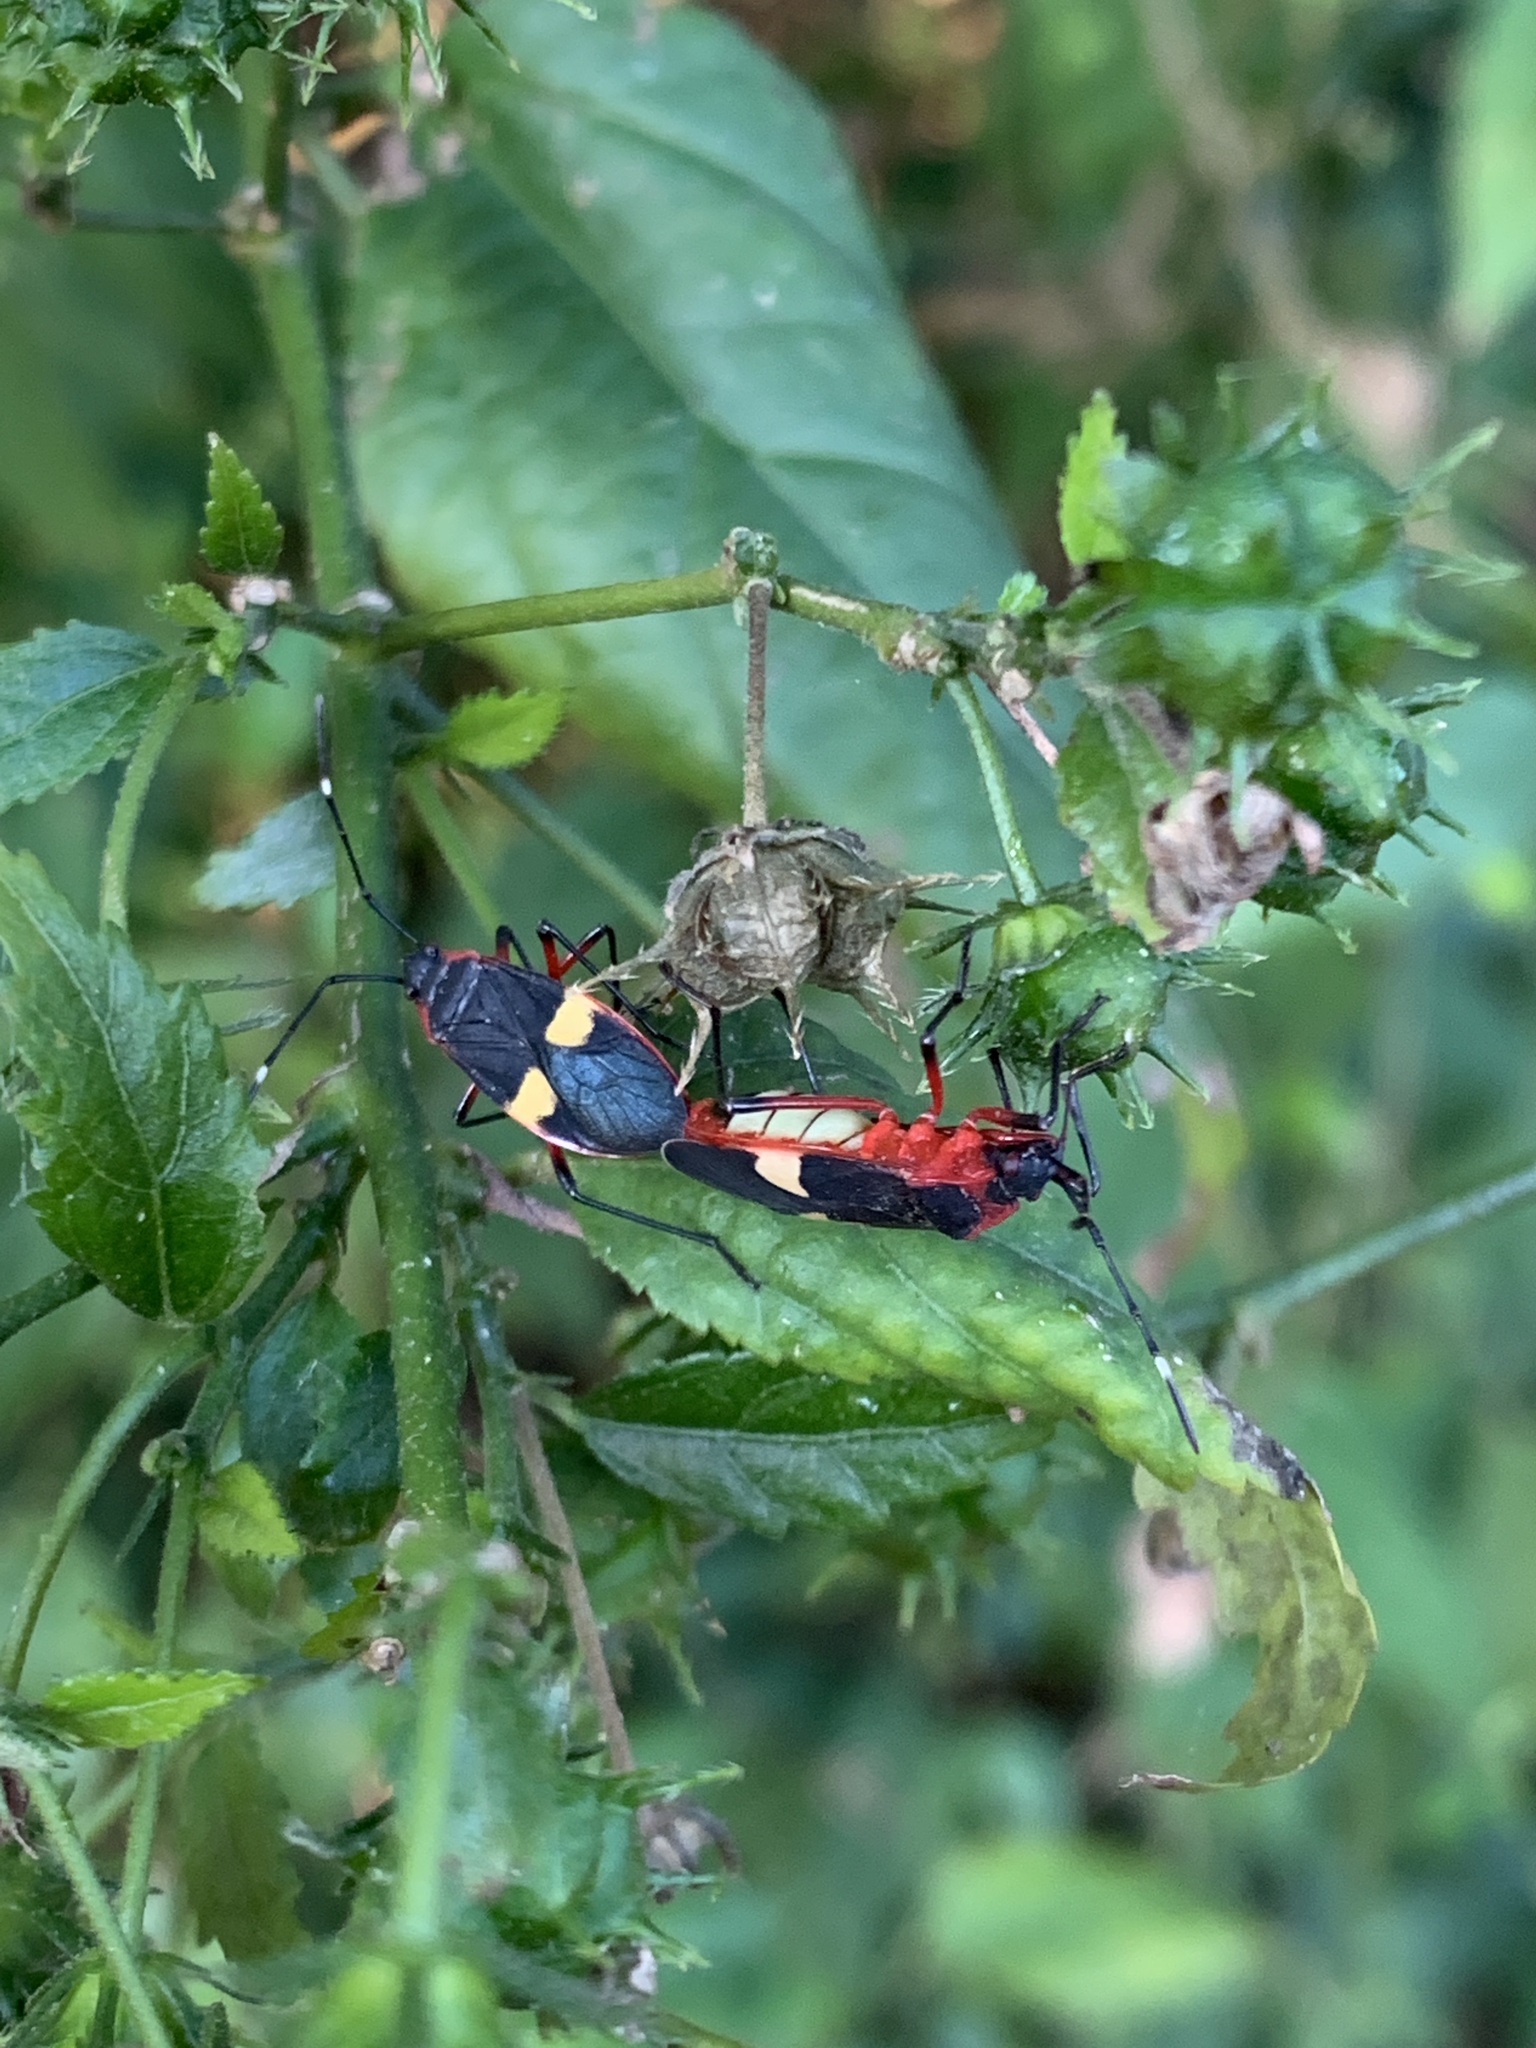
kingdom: Animalia
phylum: Arthropoda
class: Insecta
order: Hemiptera
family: Pyrrhocoridae
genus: Dysdercus
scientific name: Dysdercus albofasciatus
